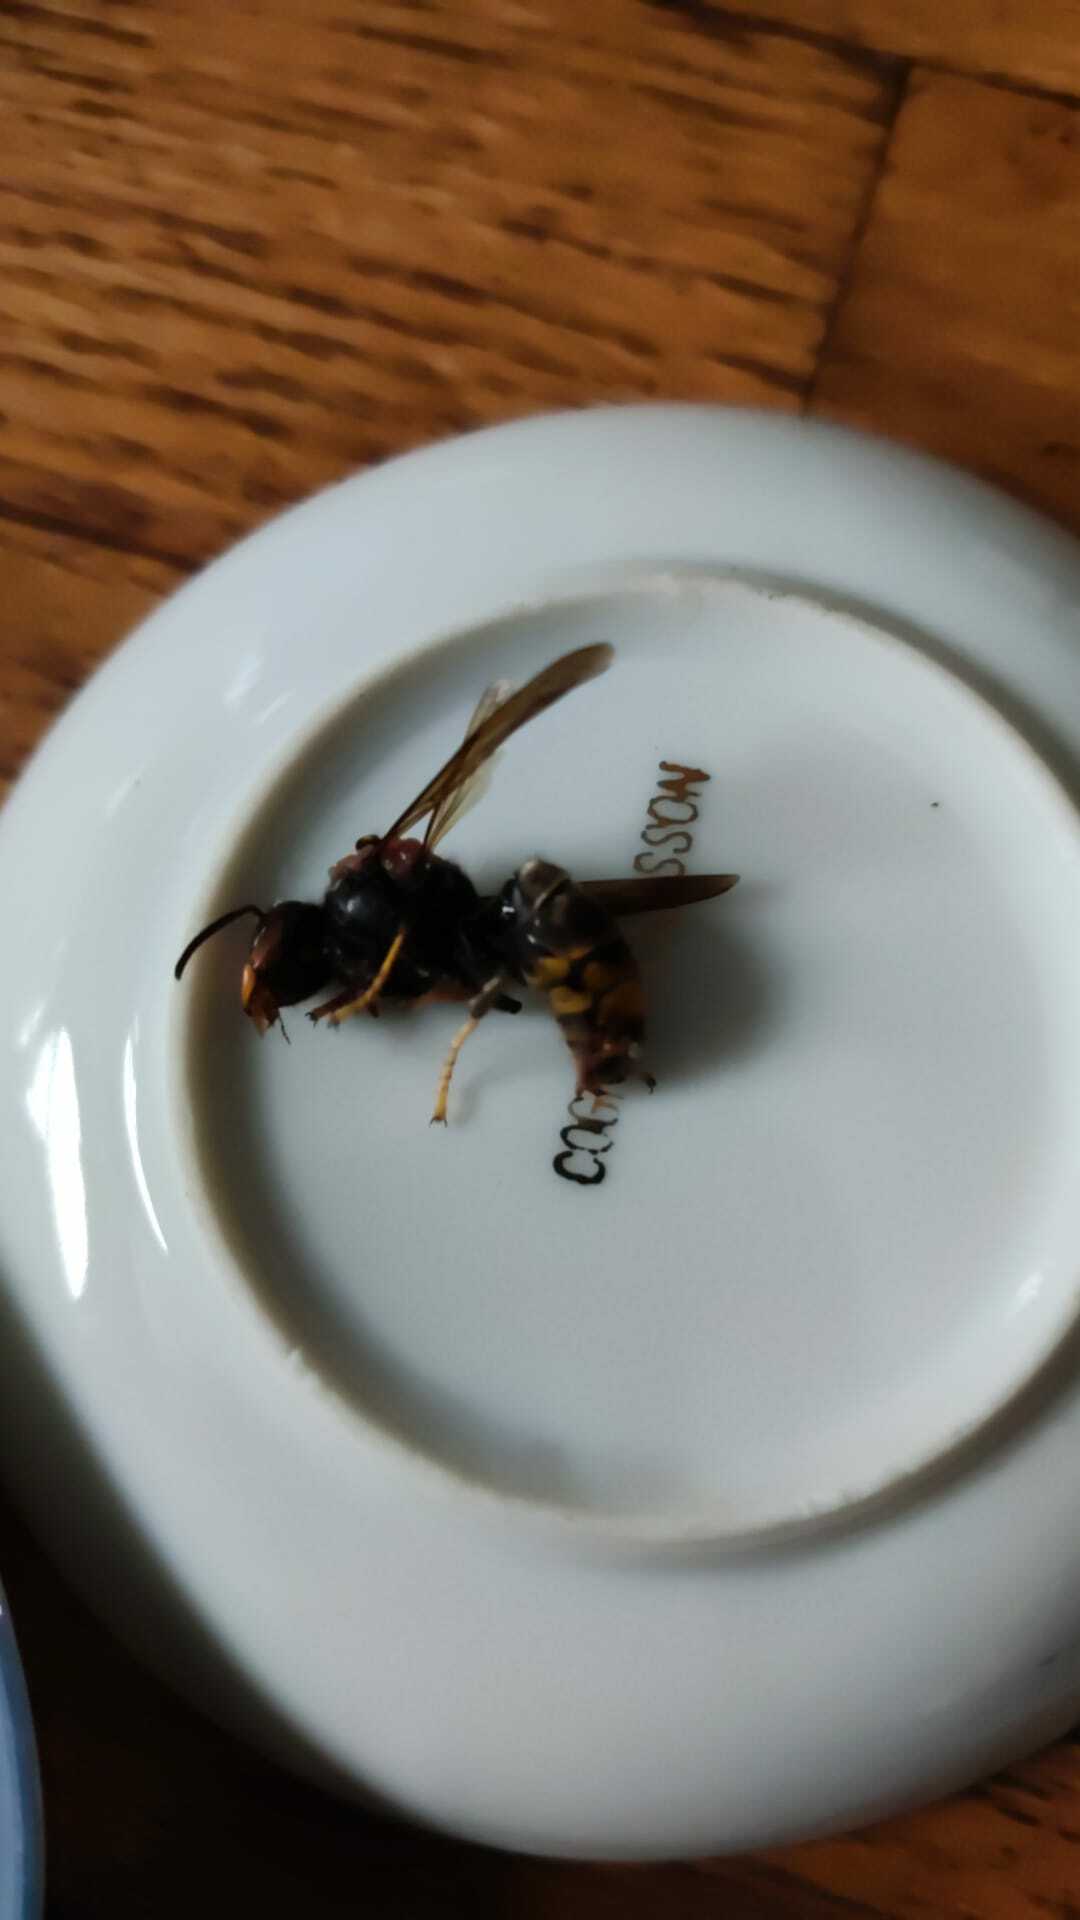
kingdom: Animalia
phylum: Arthropoda
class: Insecta
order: Hymenoptera
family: Vespidae
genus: Vespa
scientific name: Vespa velutina
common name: Asian hornet
